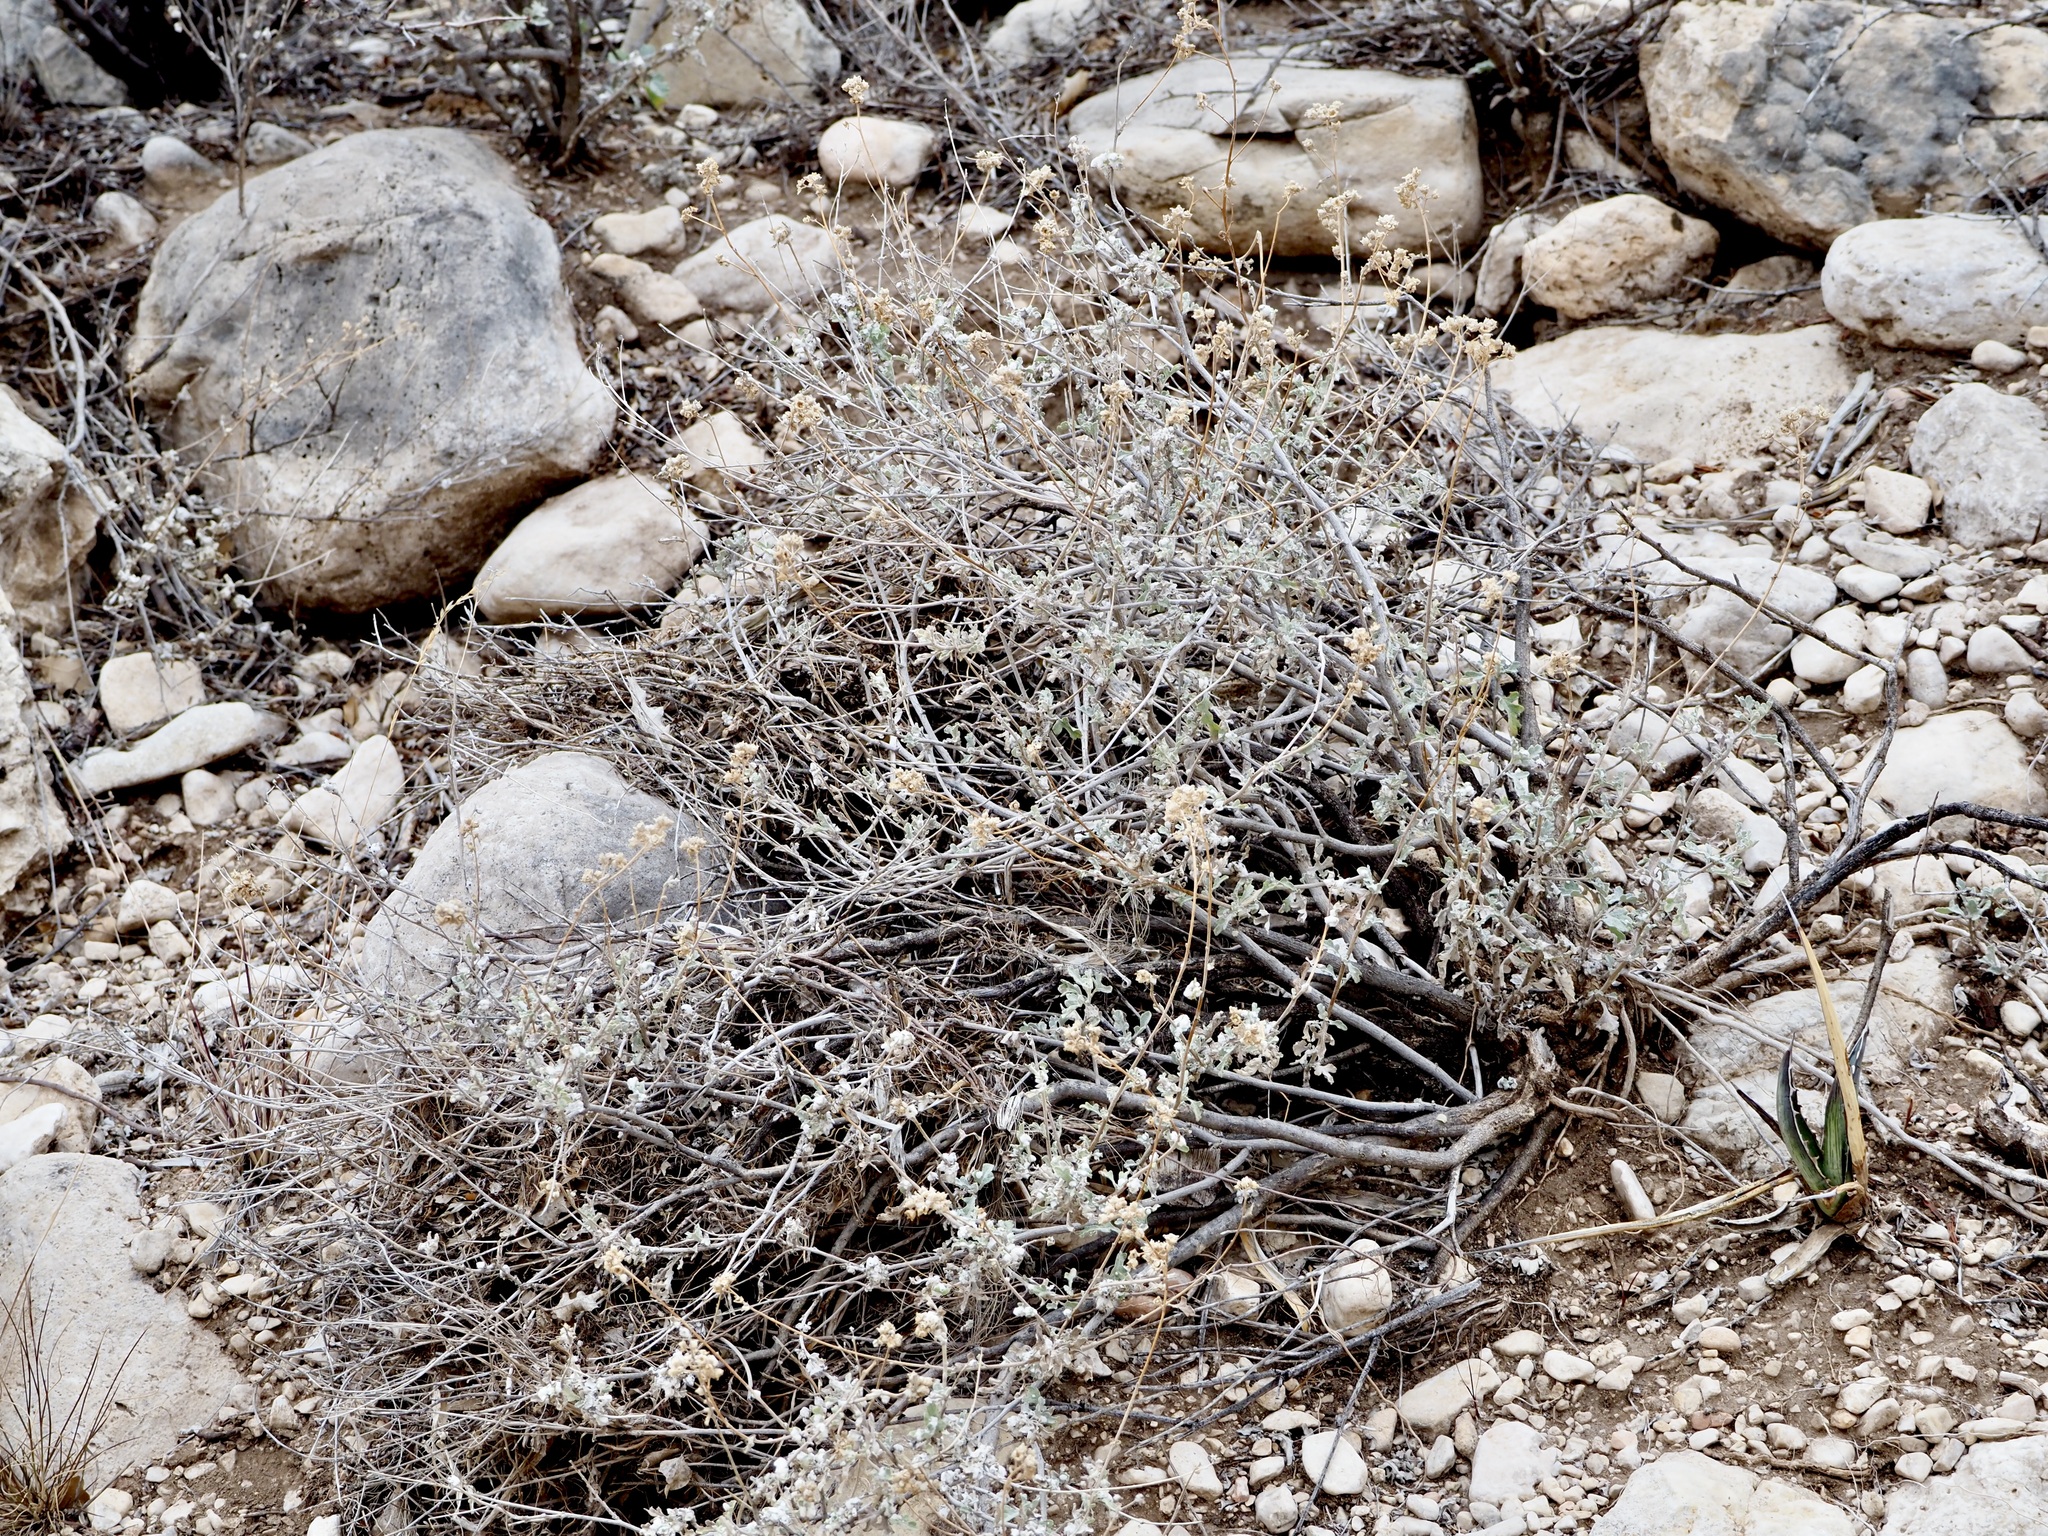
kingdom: Plantae
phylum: Tracheophyta
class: Magnoliopsida
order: Asterales
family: Asteraceae
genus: Parthenium
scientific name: Parthenium incanum
